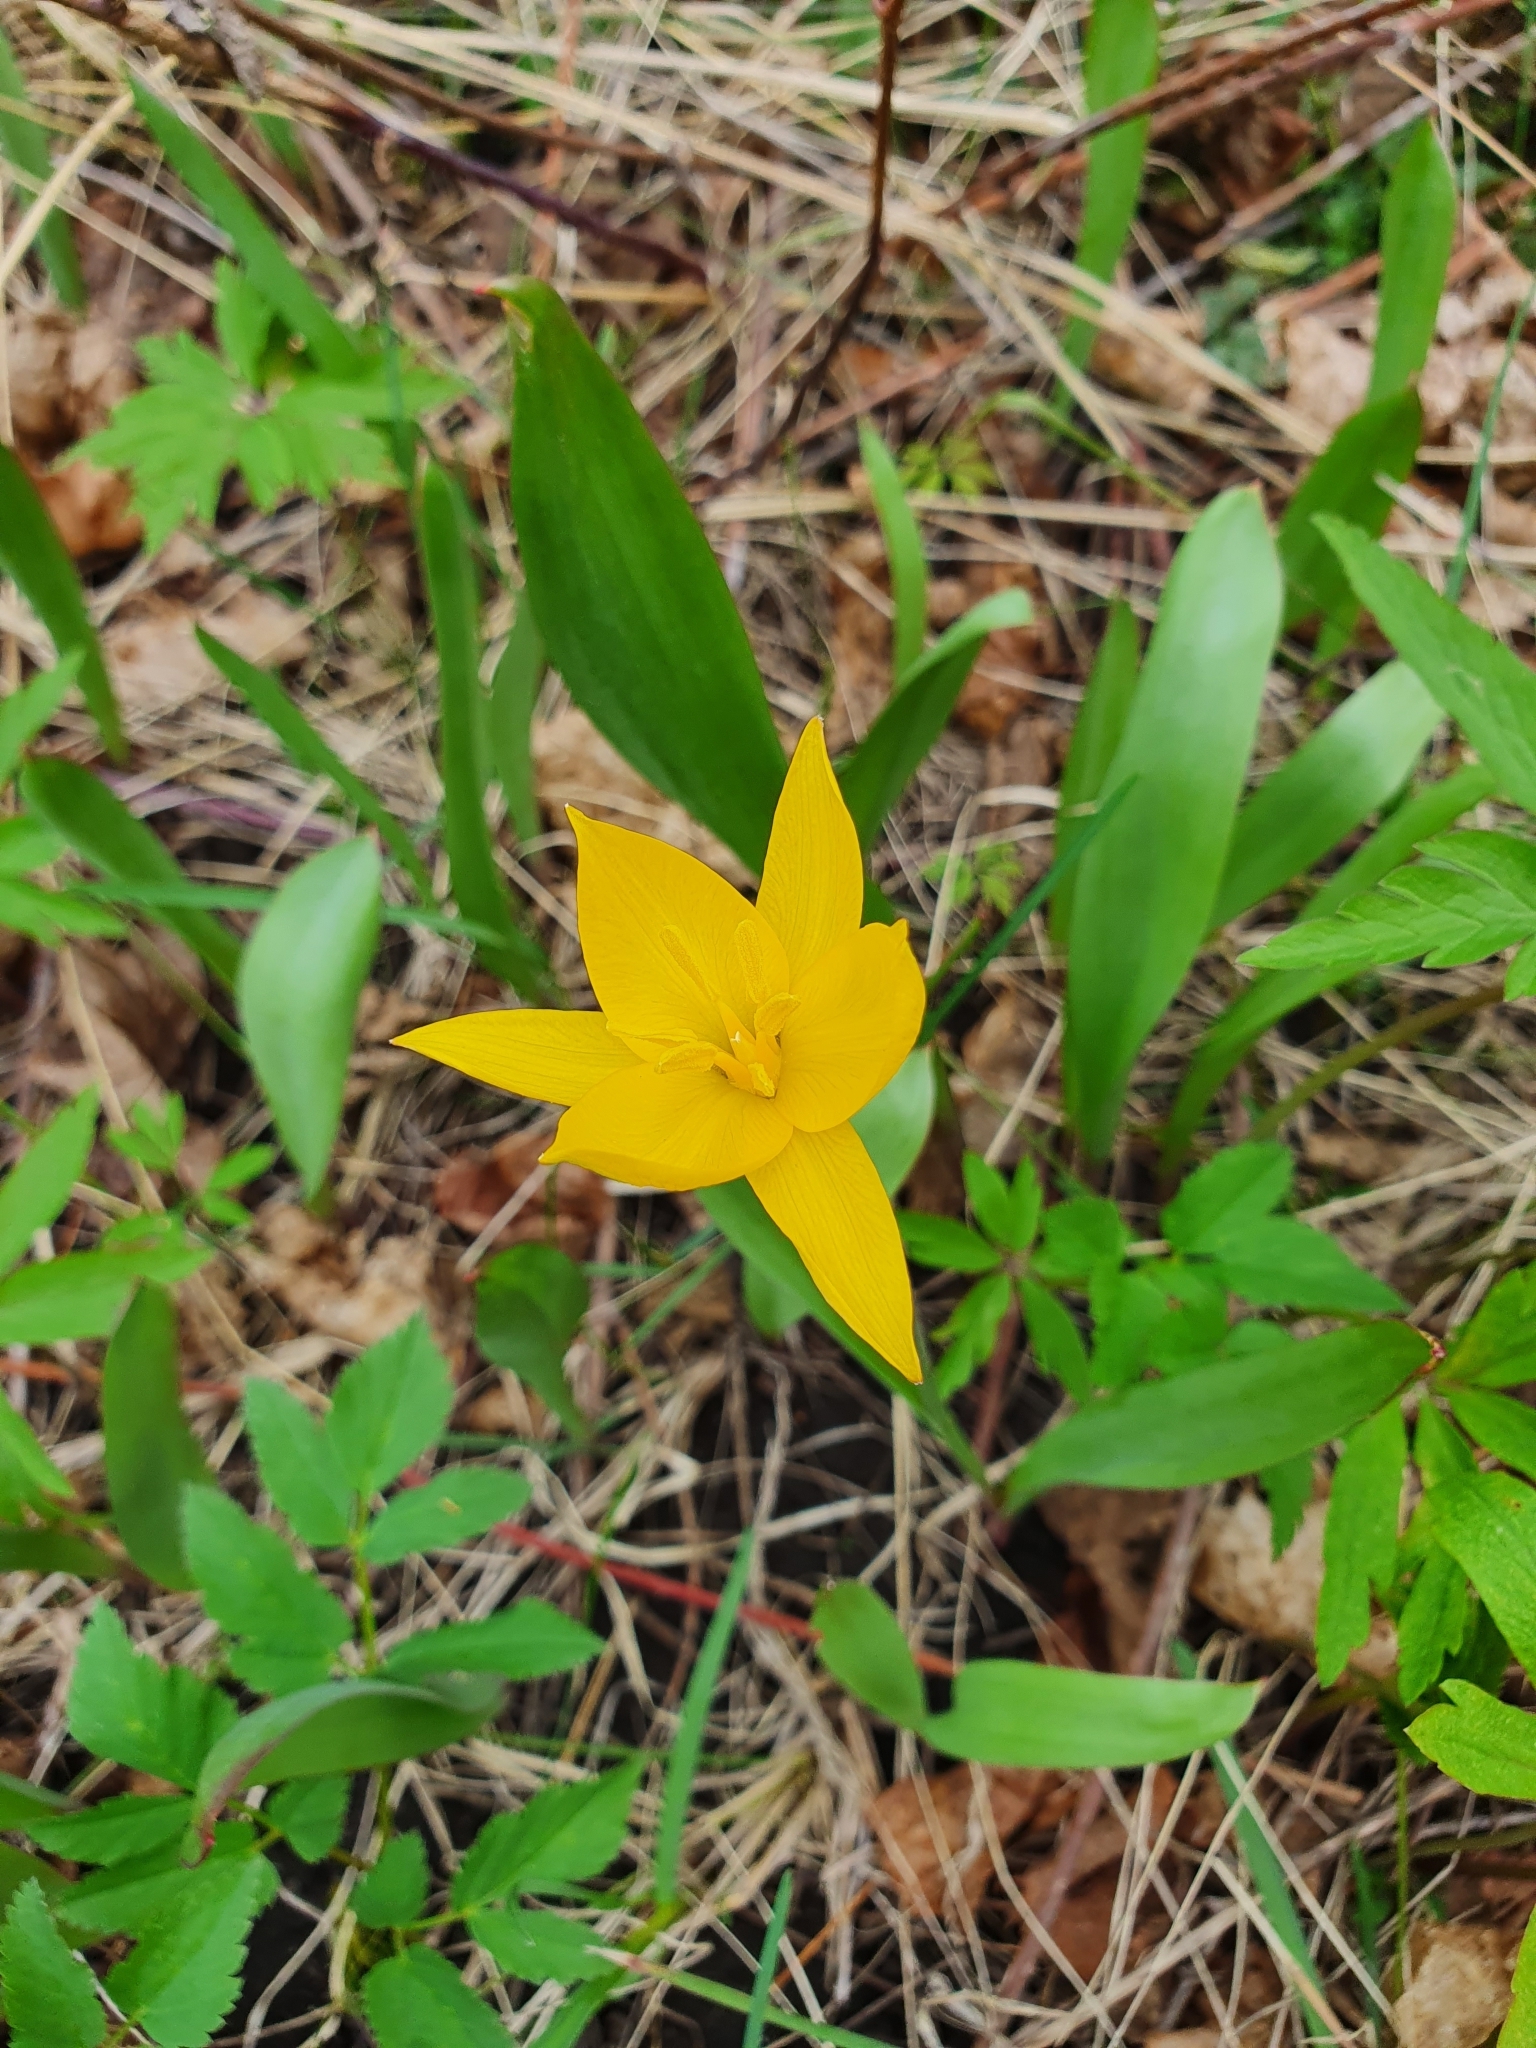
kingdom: Plantae
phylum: Tracheophyta
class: Liliopsida
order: Liliales
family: Liliaceae
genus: Tulipa
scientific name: Tulipa sylvestris
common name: Wild tulip
